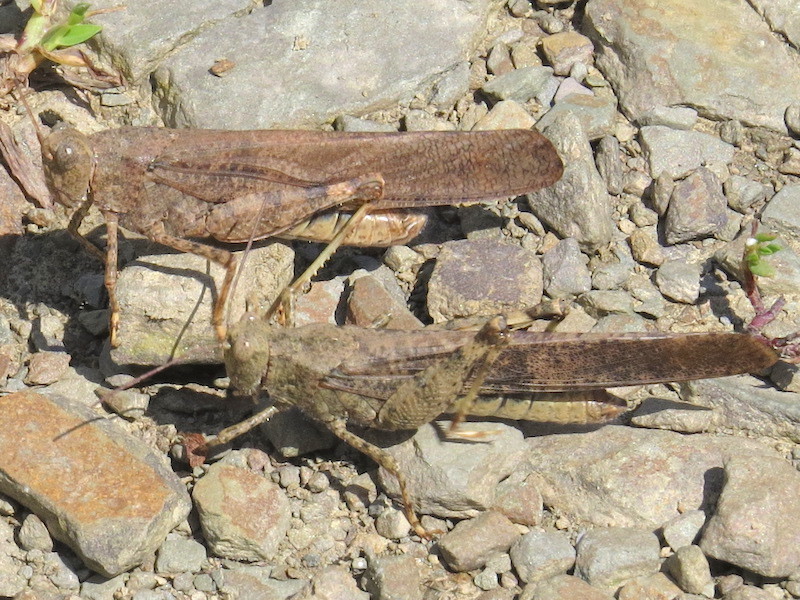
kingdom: Animalia
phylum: Arthropoda
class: Insecta
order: Orthoptera
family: Acrididae
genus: Dissosteira
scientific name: Dissosteira carolina
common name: Carolina grasshopper
